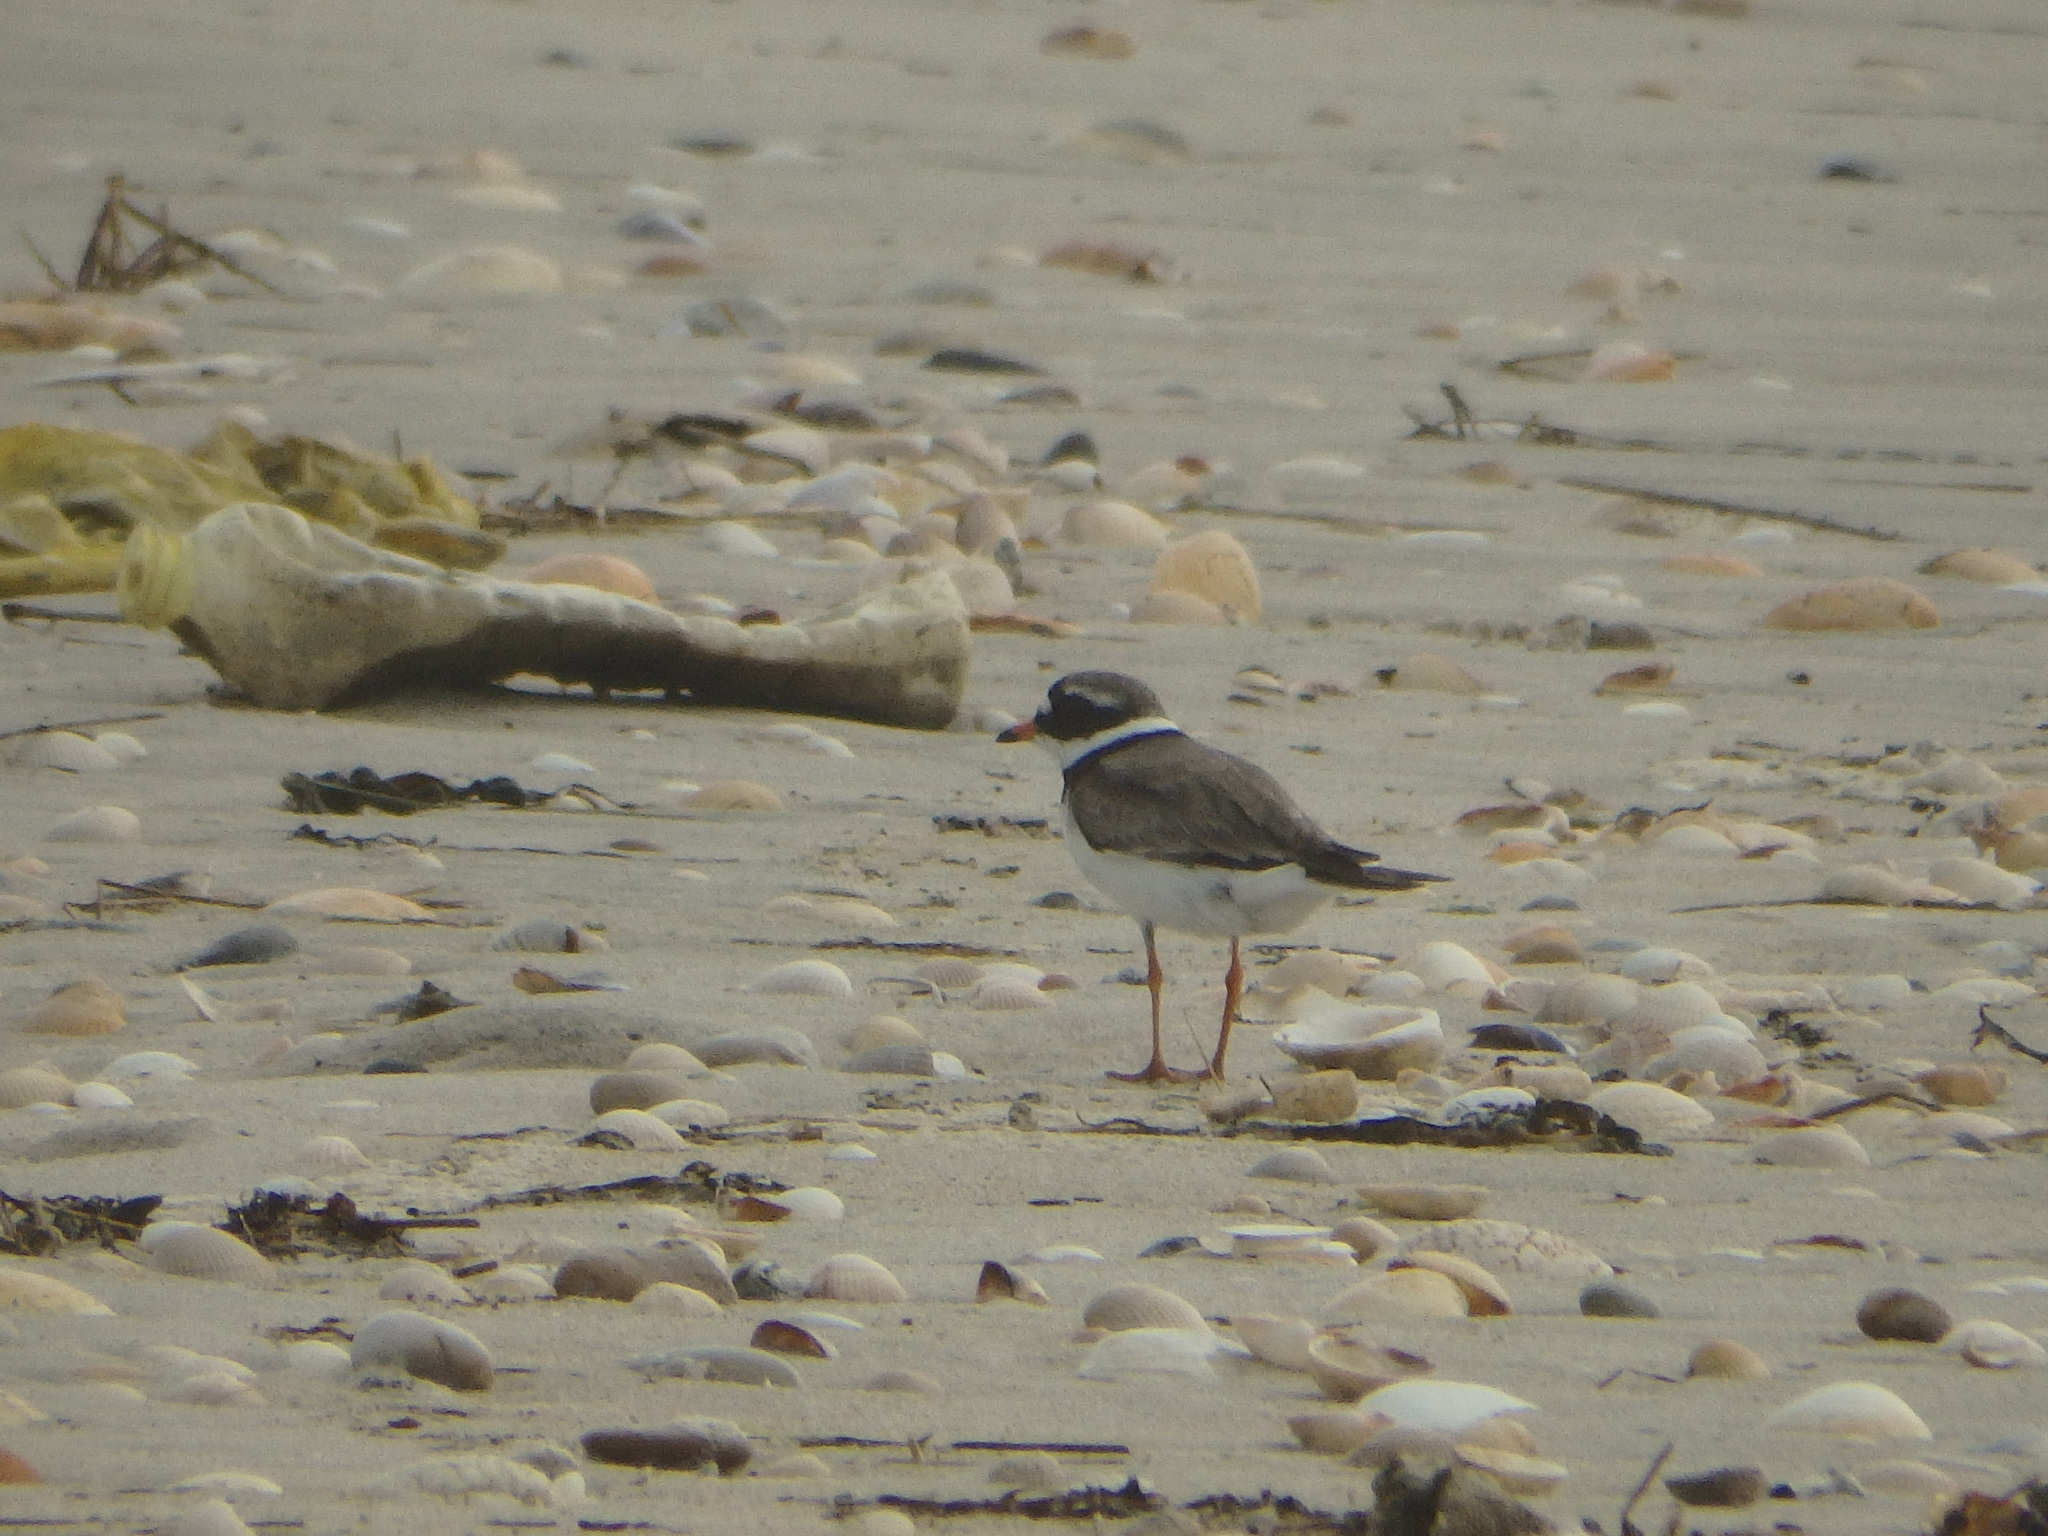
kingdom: Animalia
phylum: Chordata
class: Aves
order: Charadriiformes
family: Charadriidae
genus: Charadrius
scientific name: Charadrius hiaticula
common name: Common ringed plover
